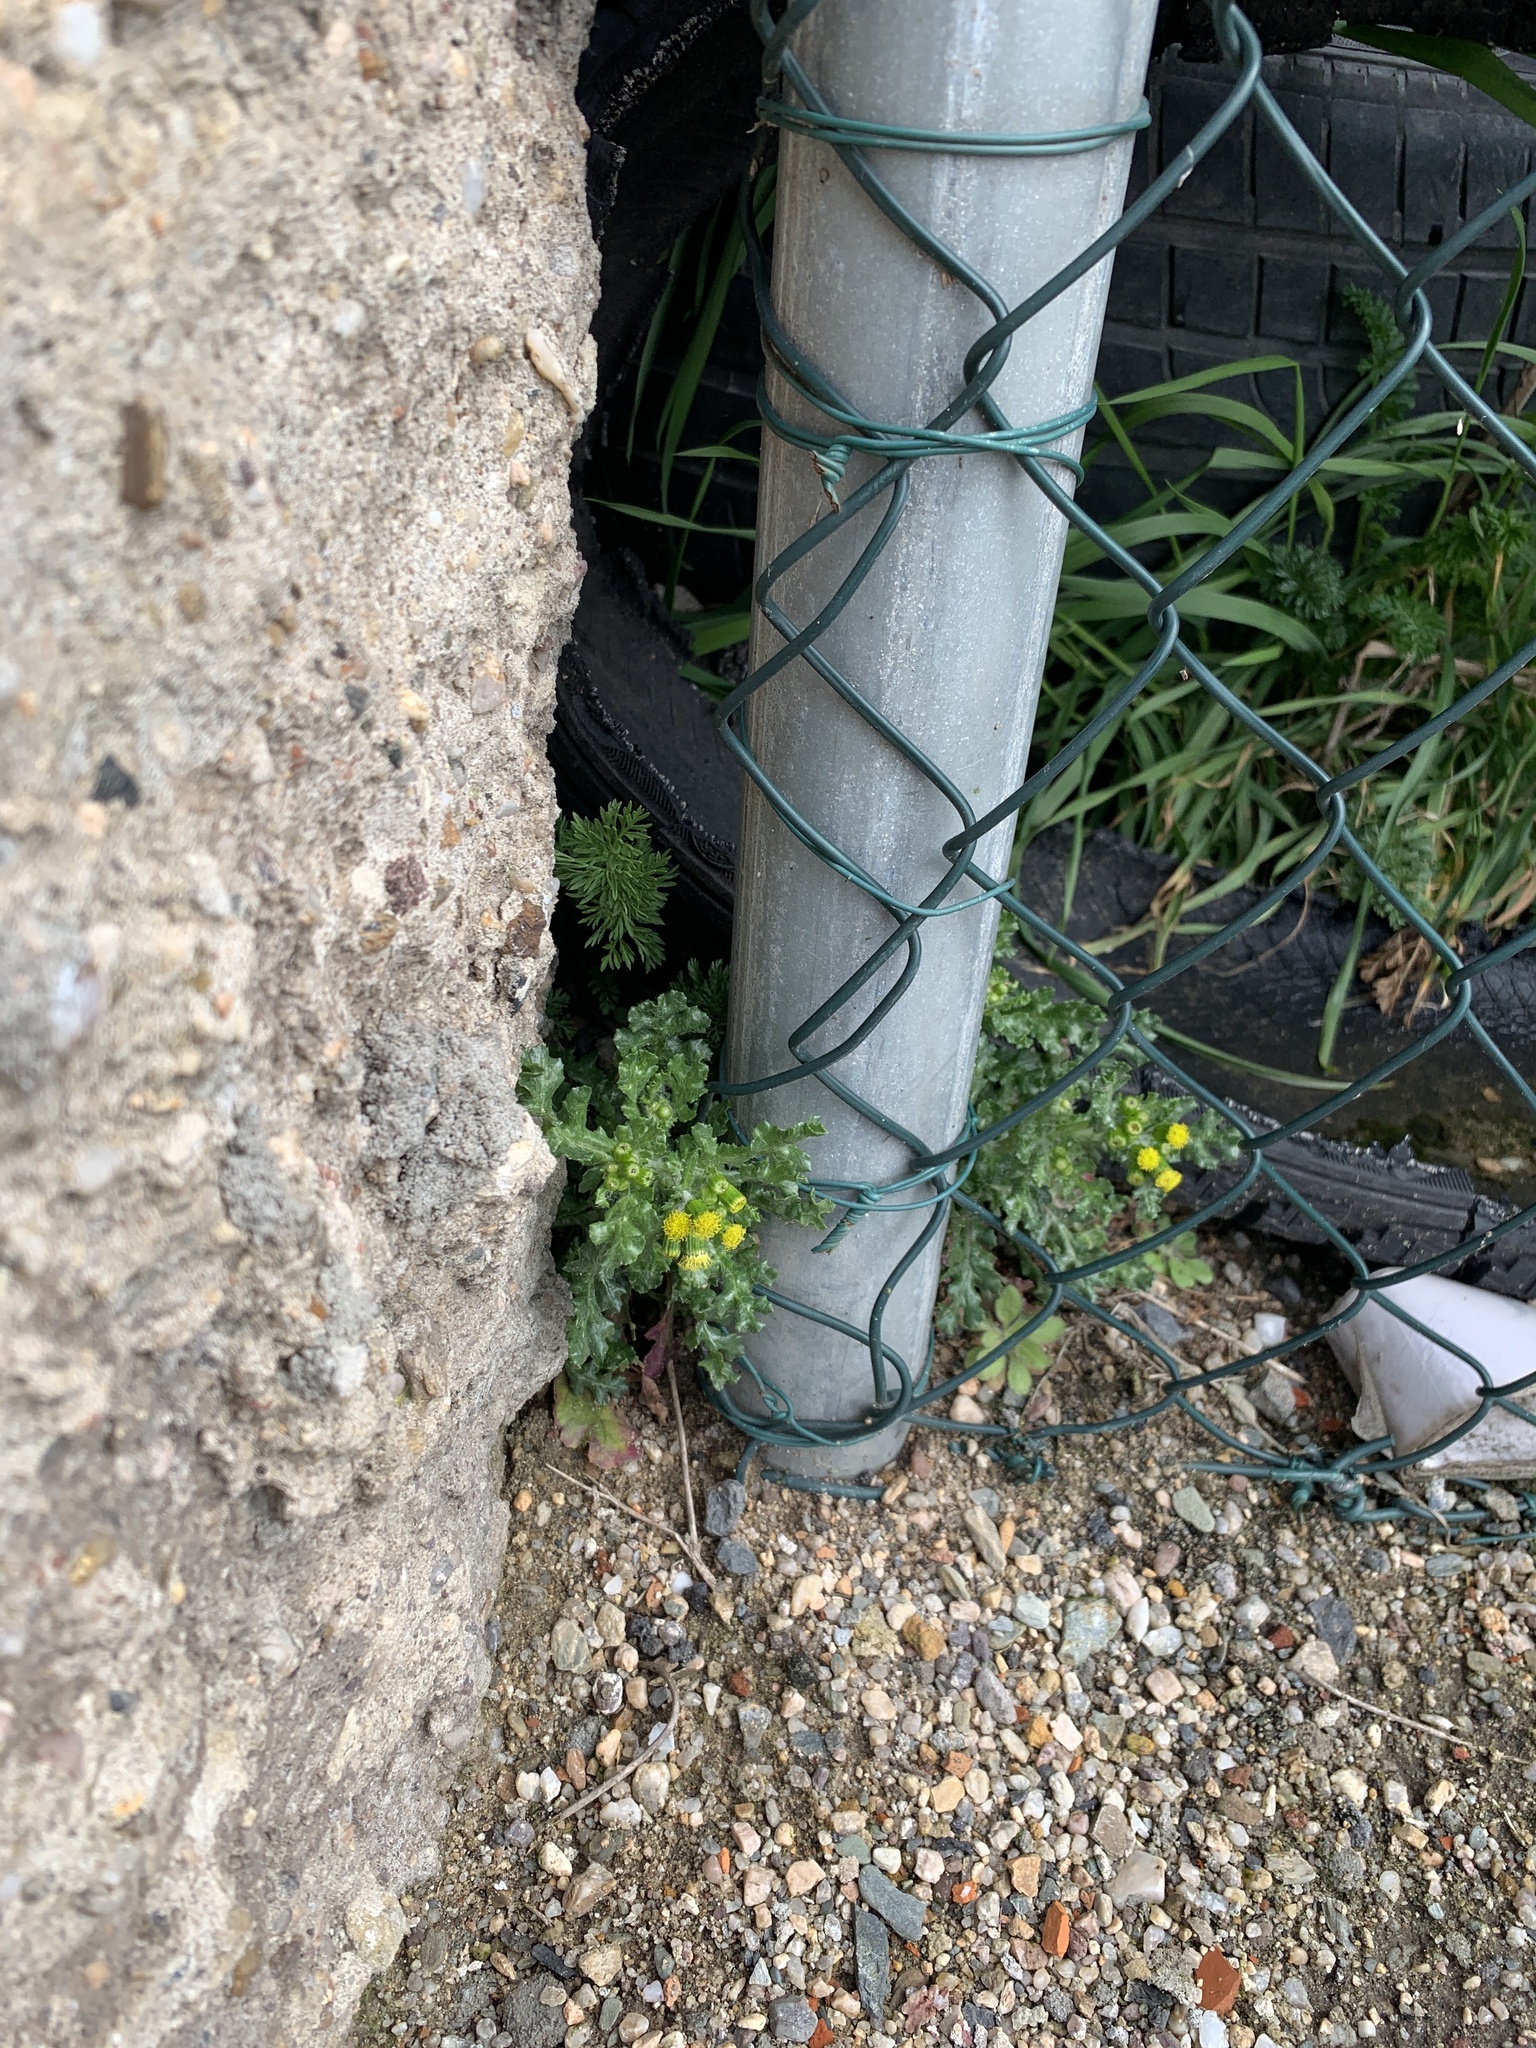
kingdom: Plantae
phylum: Tracheophyta
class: Magnoliopsida
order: Asterales
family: Asteraceae
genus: Senecio
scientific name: Senecio vulgaris
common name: Old-man-in-the-spring
